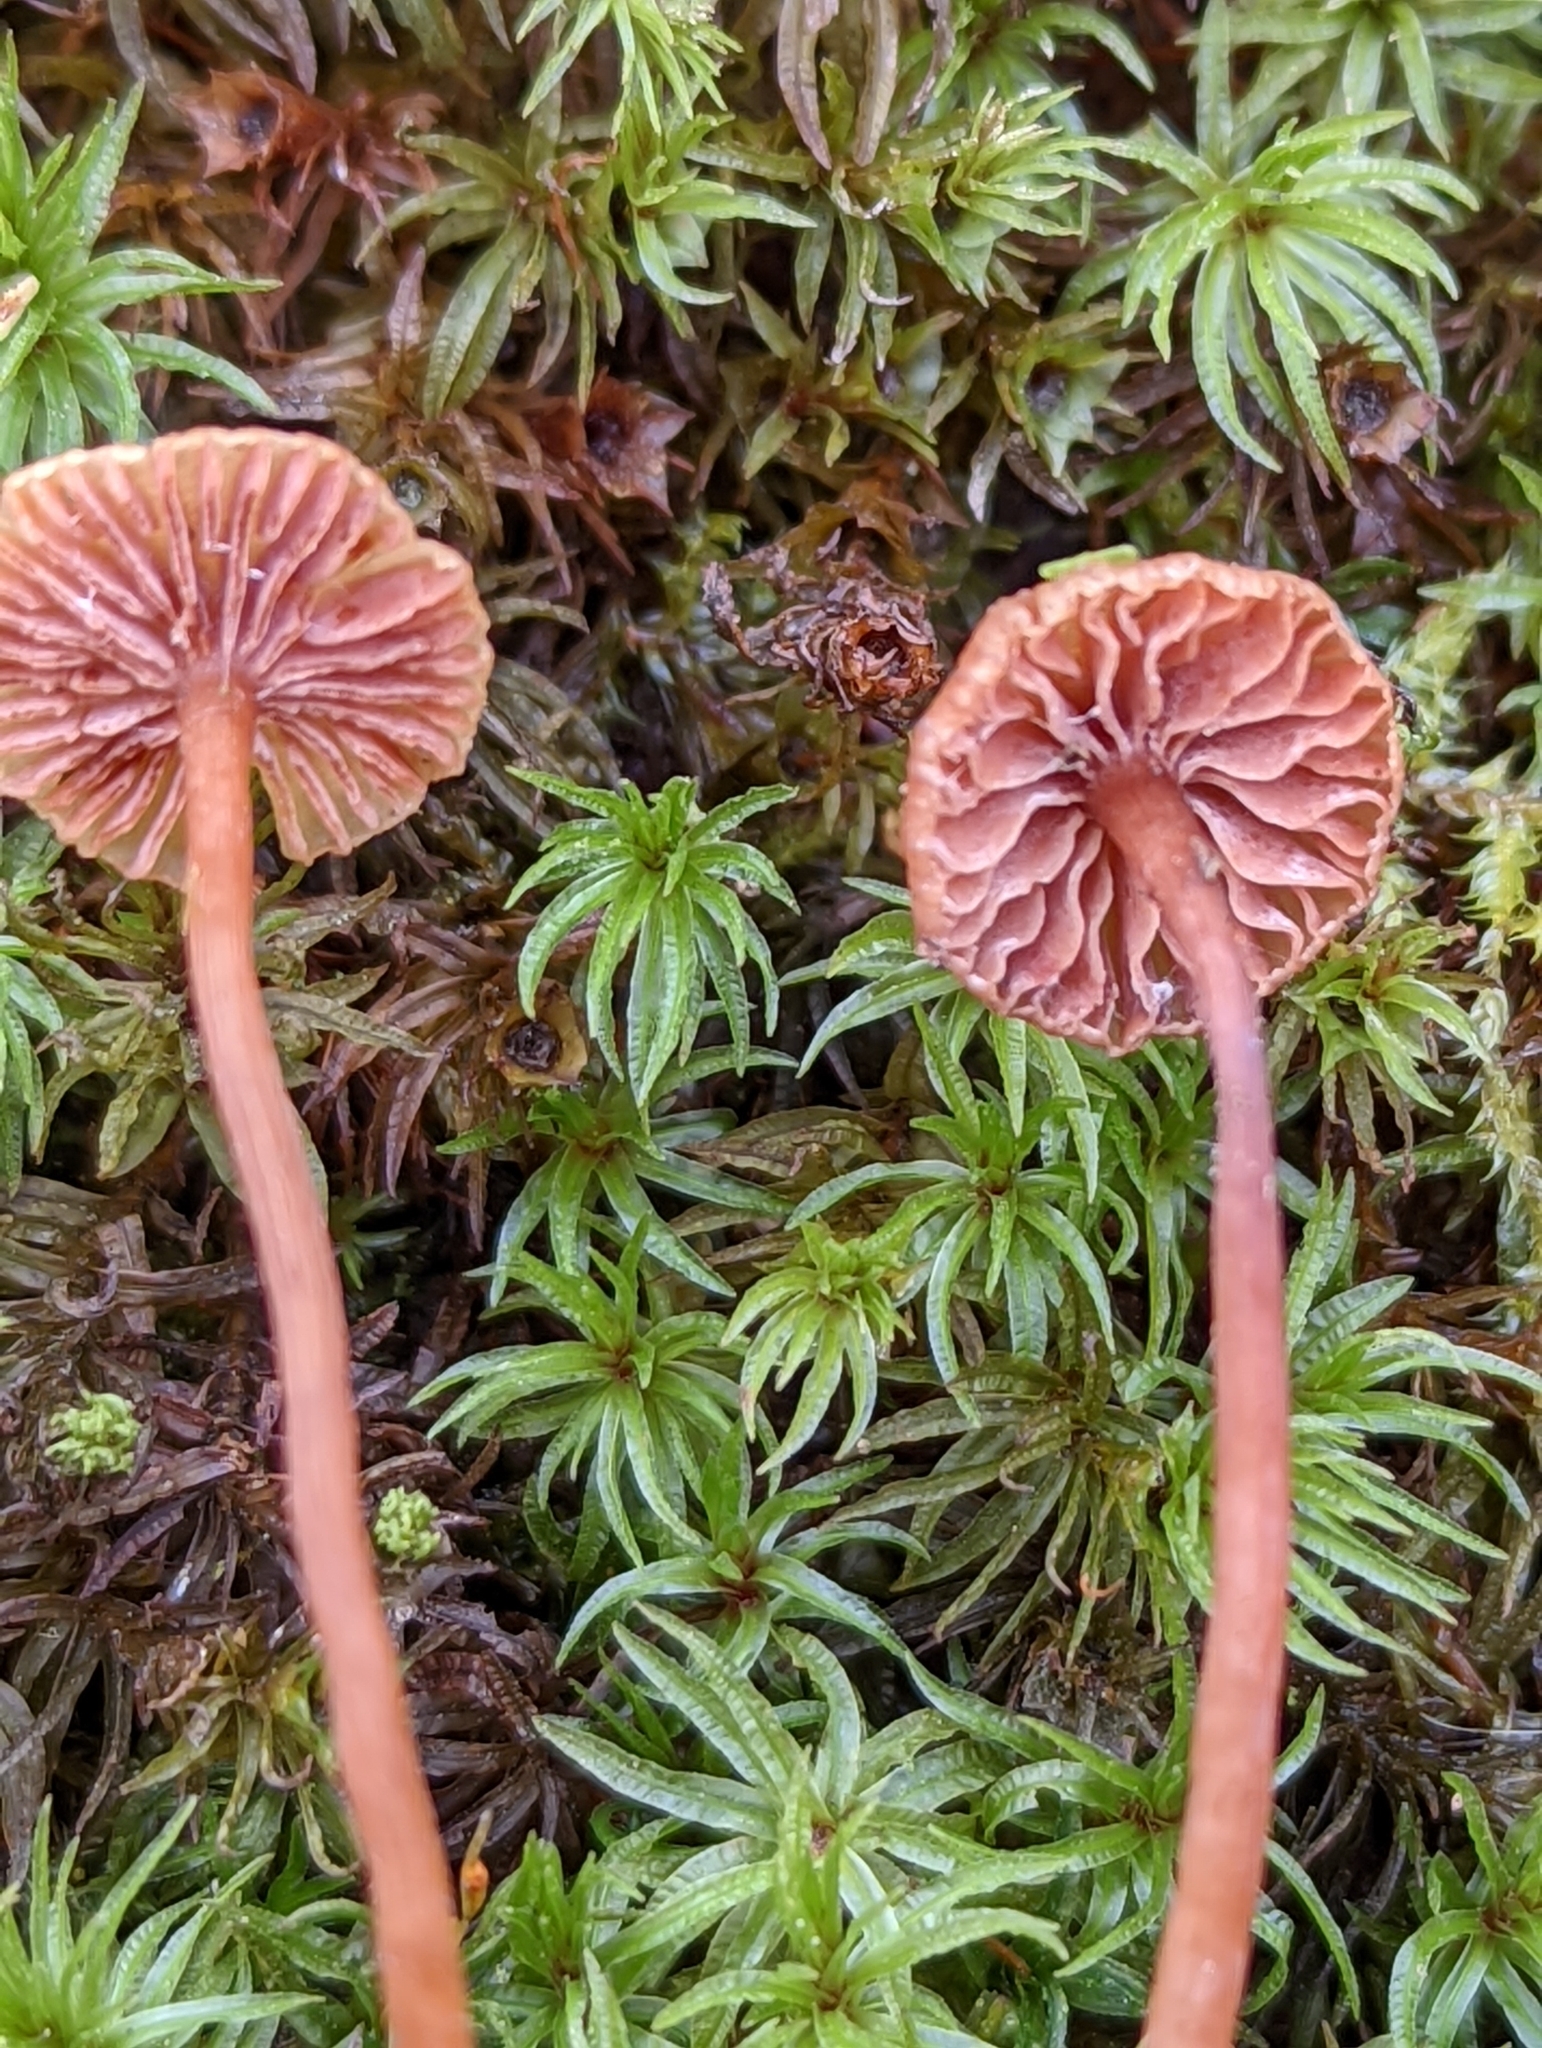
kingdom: Fungi
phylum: Basidiomycota
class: Agaricomycetes
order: Agaricales
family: Hydnangiaceae
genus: Laccaria
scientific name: Laccaria striatula
